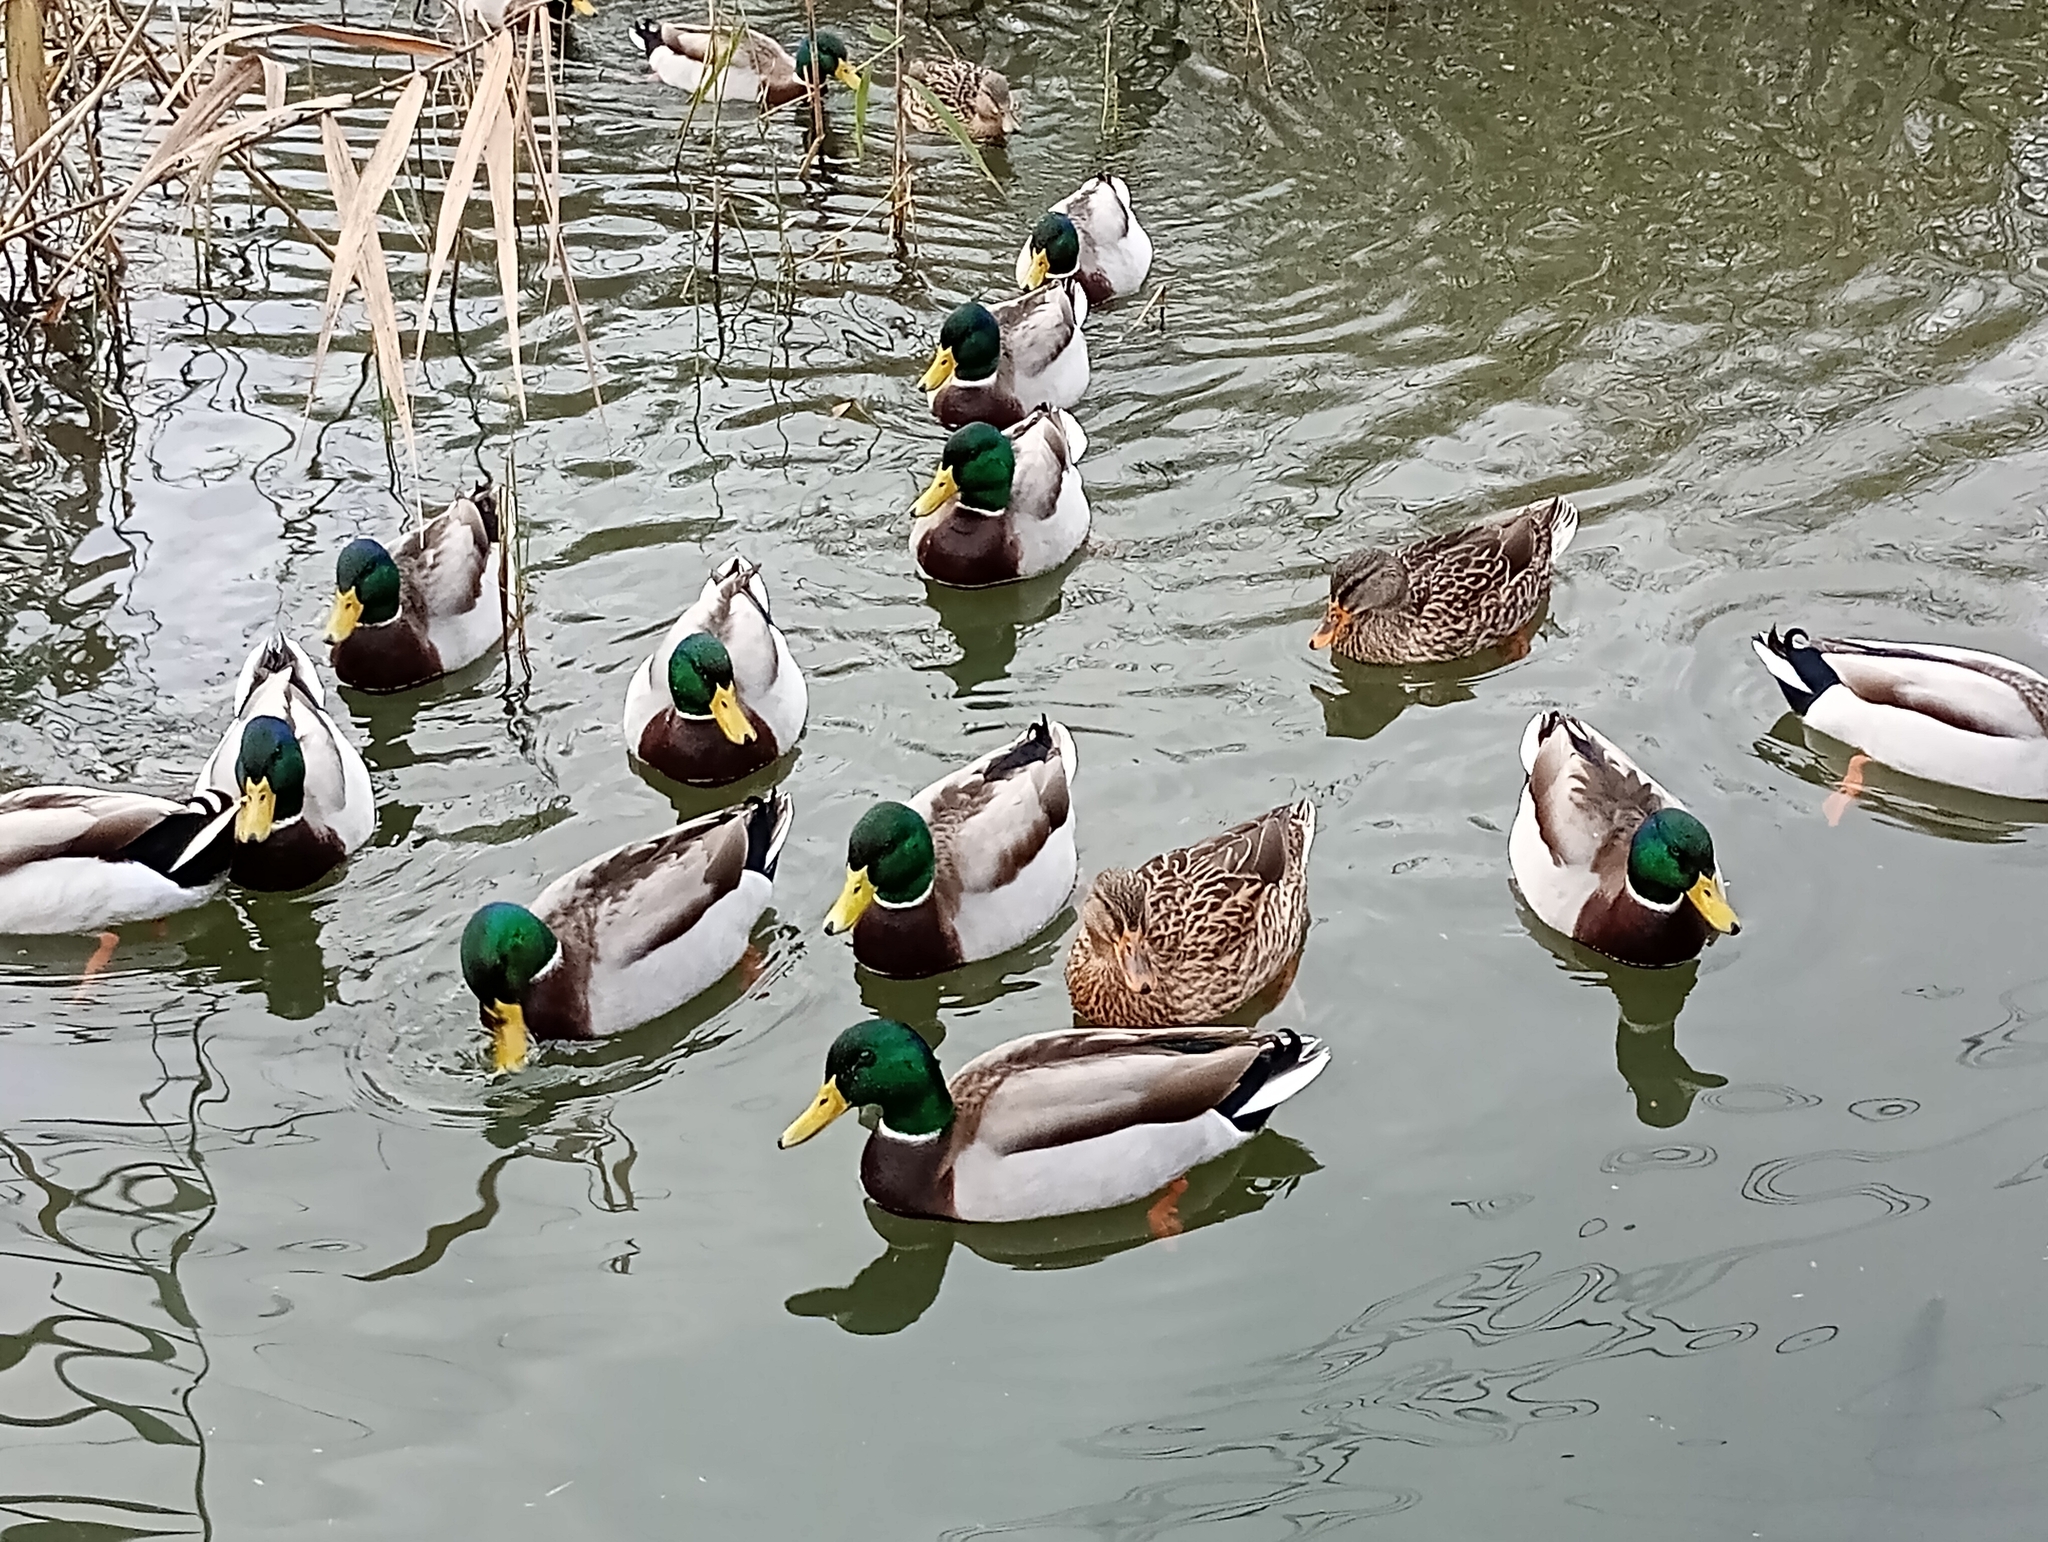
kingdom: Animalia
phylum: Chordata
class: Aves
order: Anseriformes
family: Anatidae
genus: Anas
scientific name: Anas platyrhynchos
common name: Mallard
